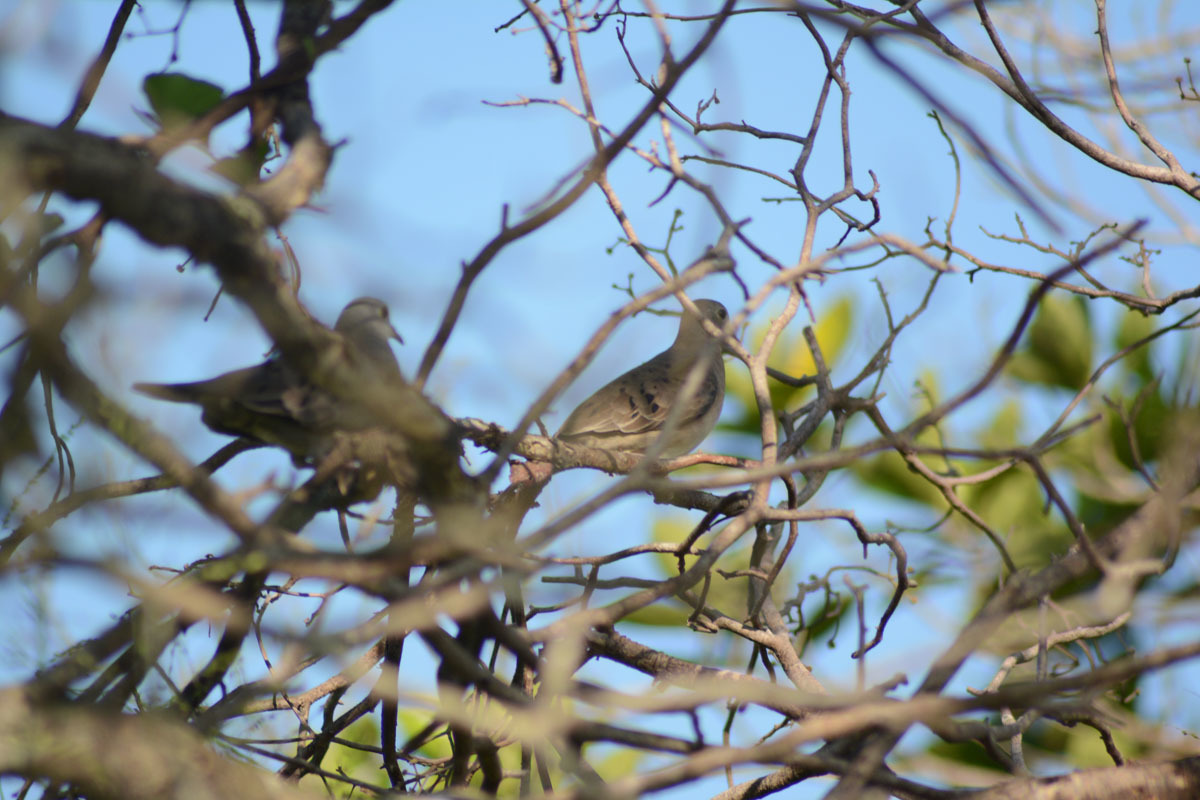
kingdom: Animalia
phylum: Chordata
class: Aves
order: Columbiformes
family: Columbidae
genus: Columbina
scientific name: Columbina passerina
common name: Common ground-dove
